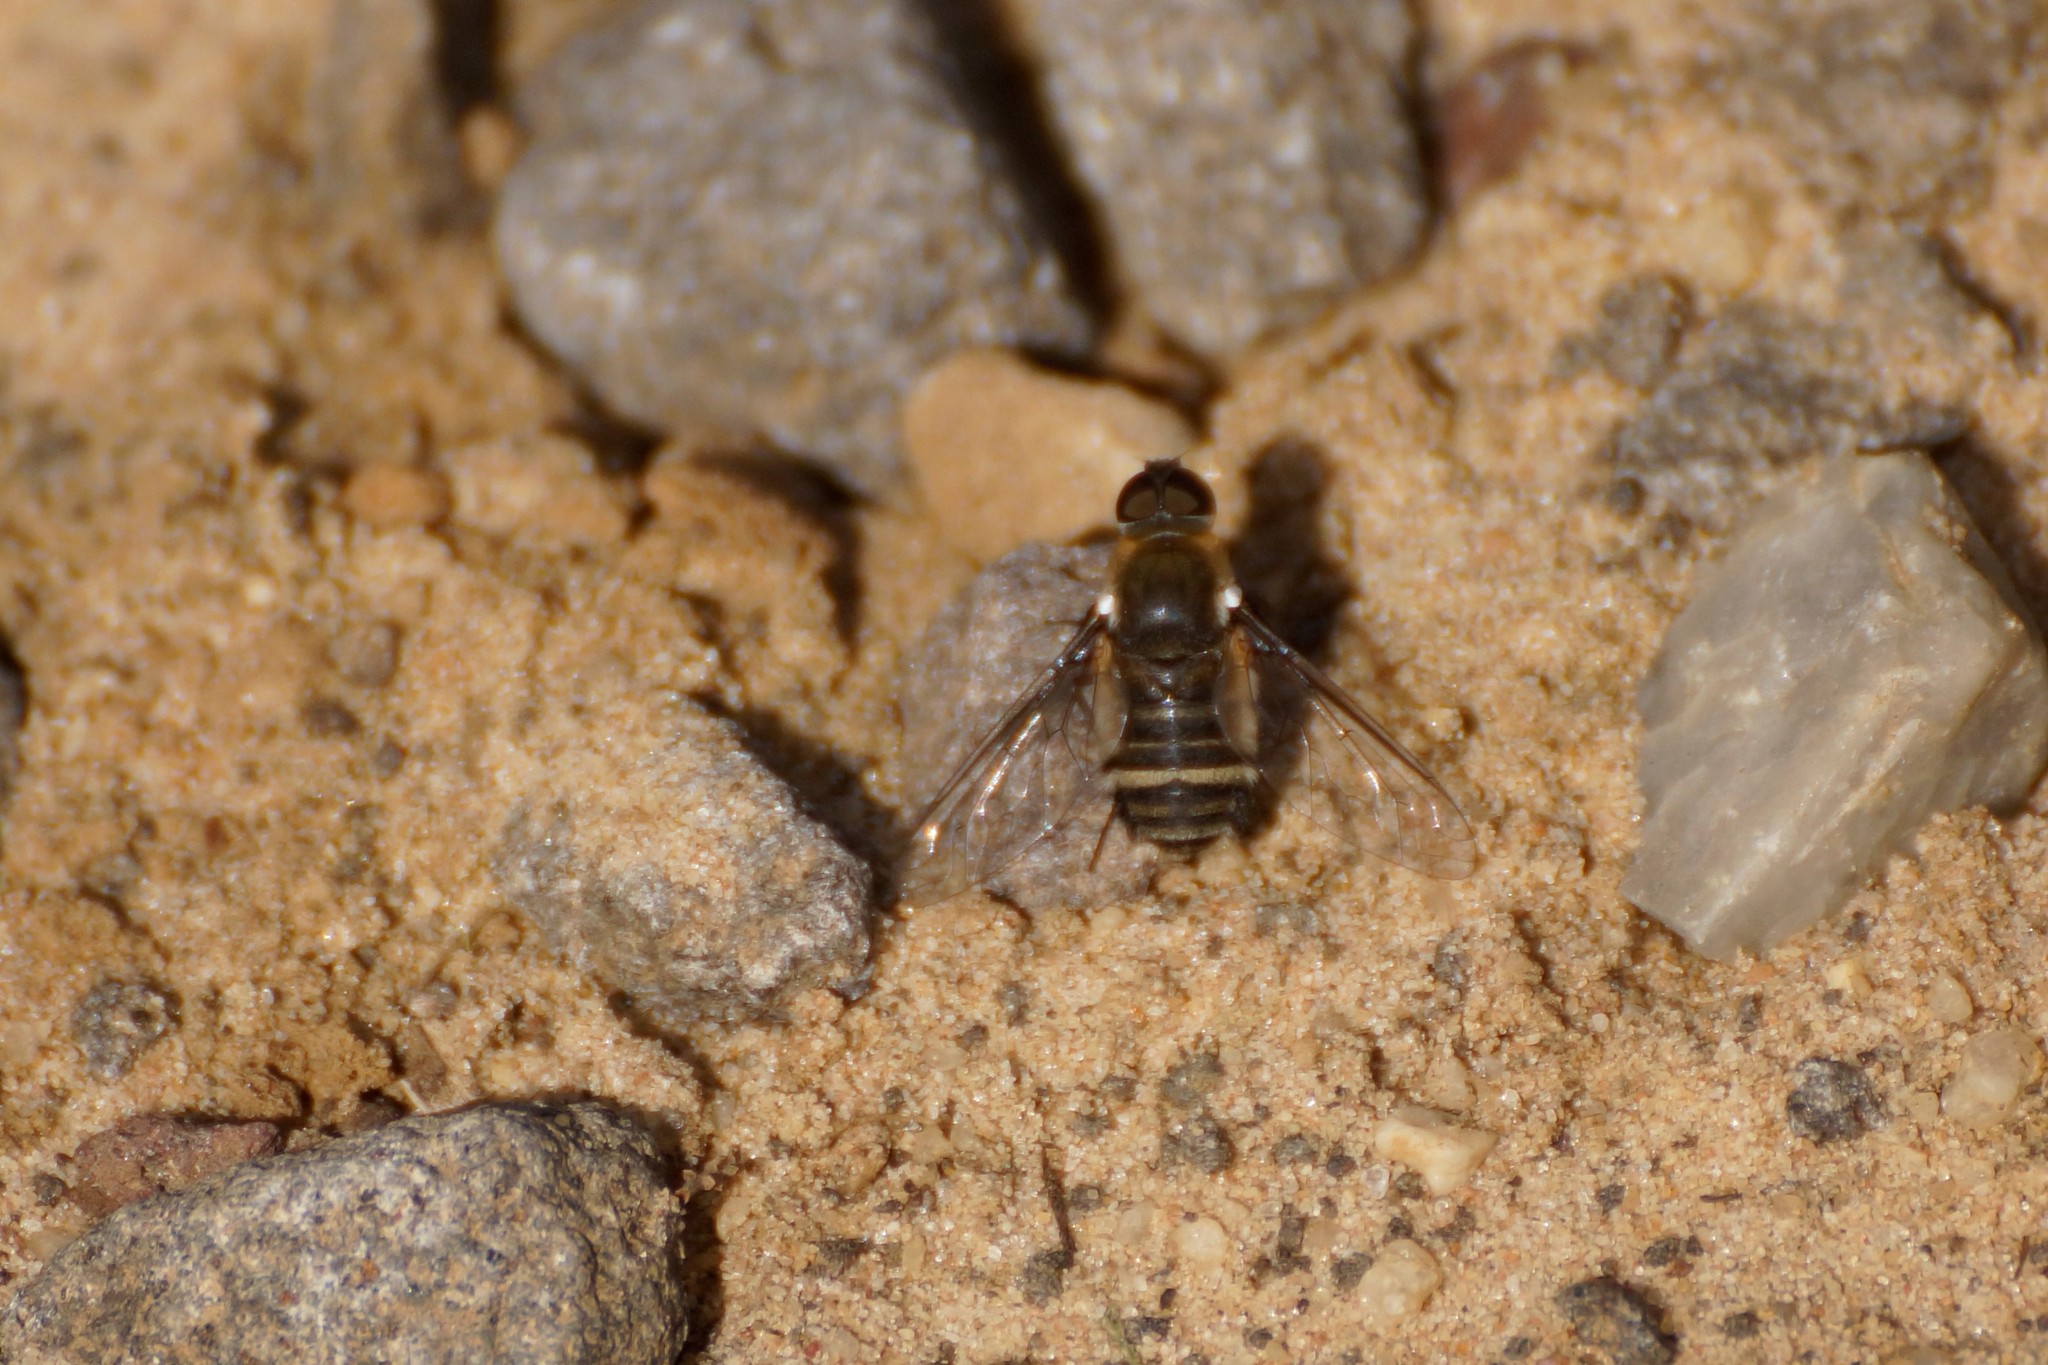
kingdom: Animalia
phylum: Arthropoda
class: Insecta
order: Diptera
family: Bombyliidae
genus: Villa
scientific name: Villa
